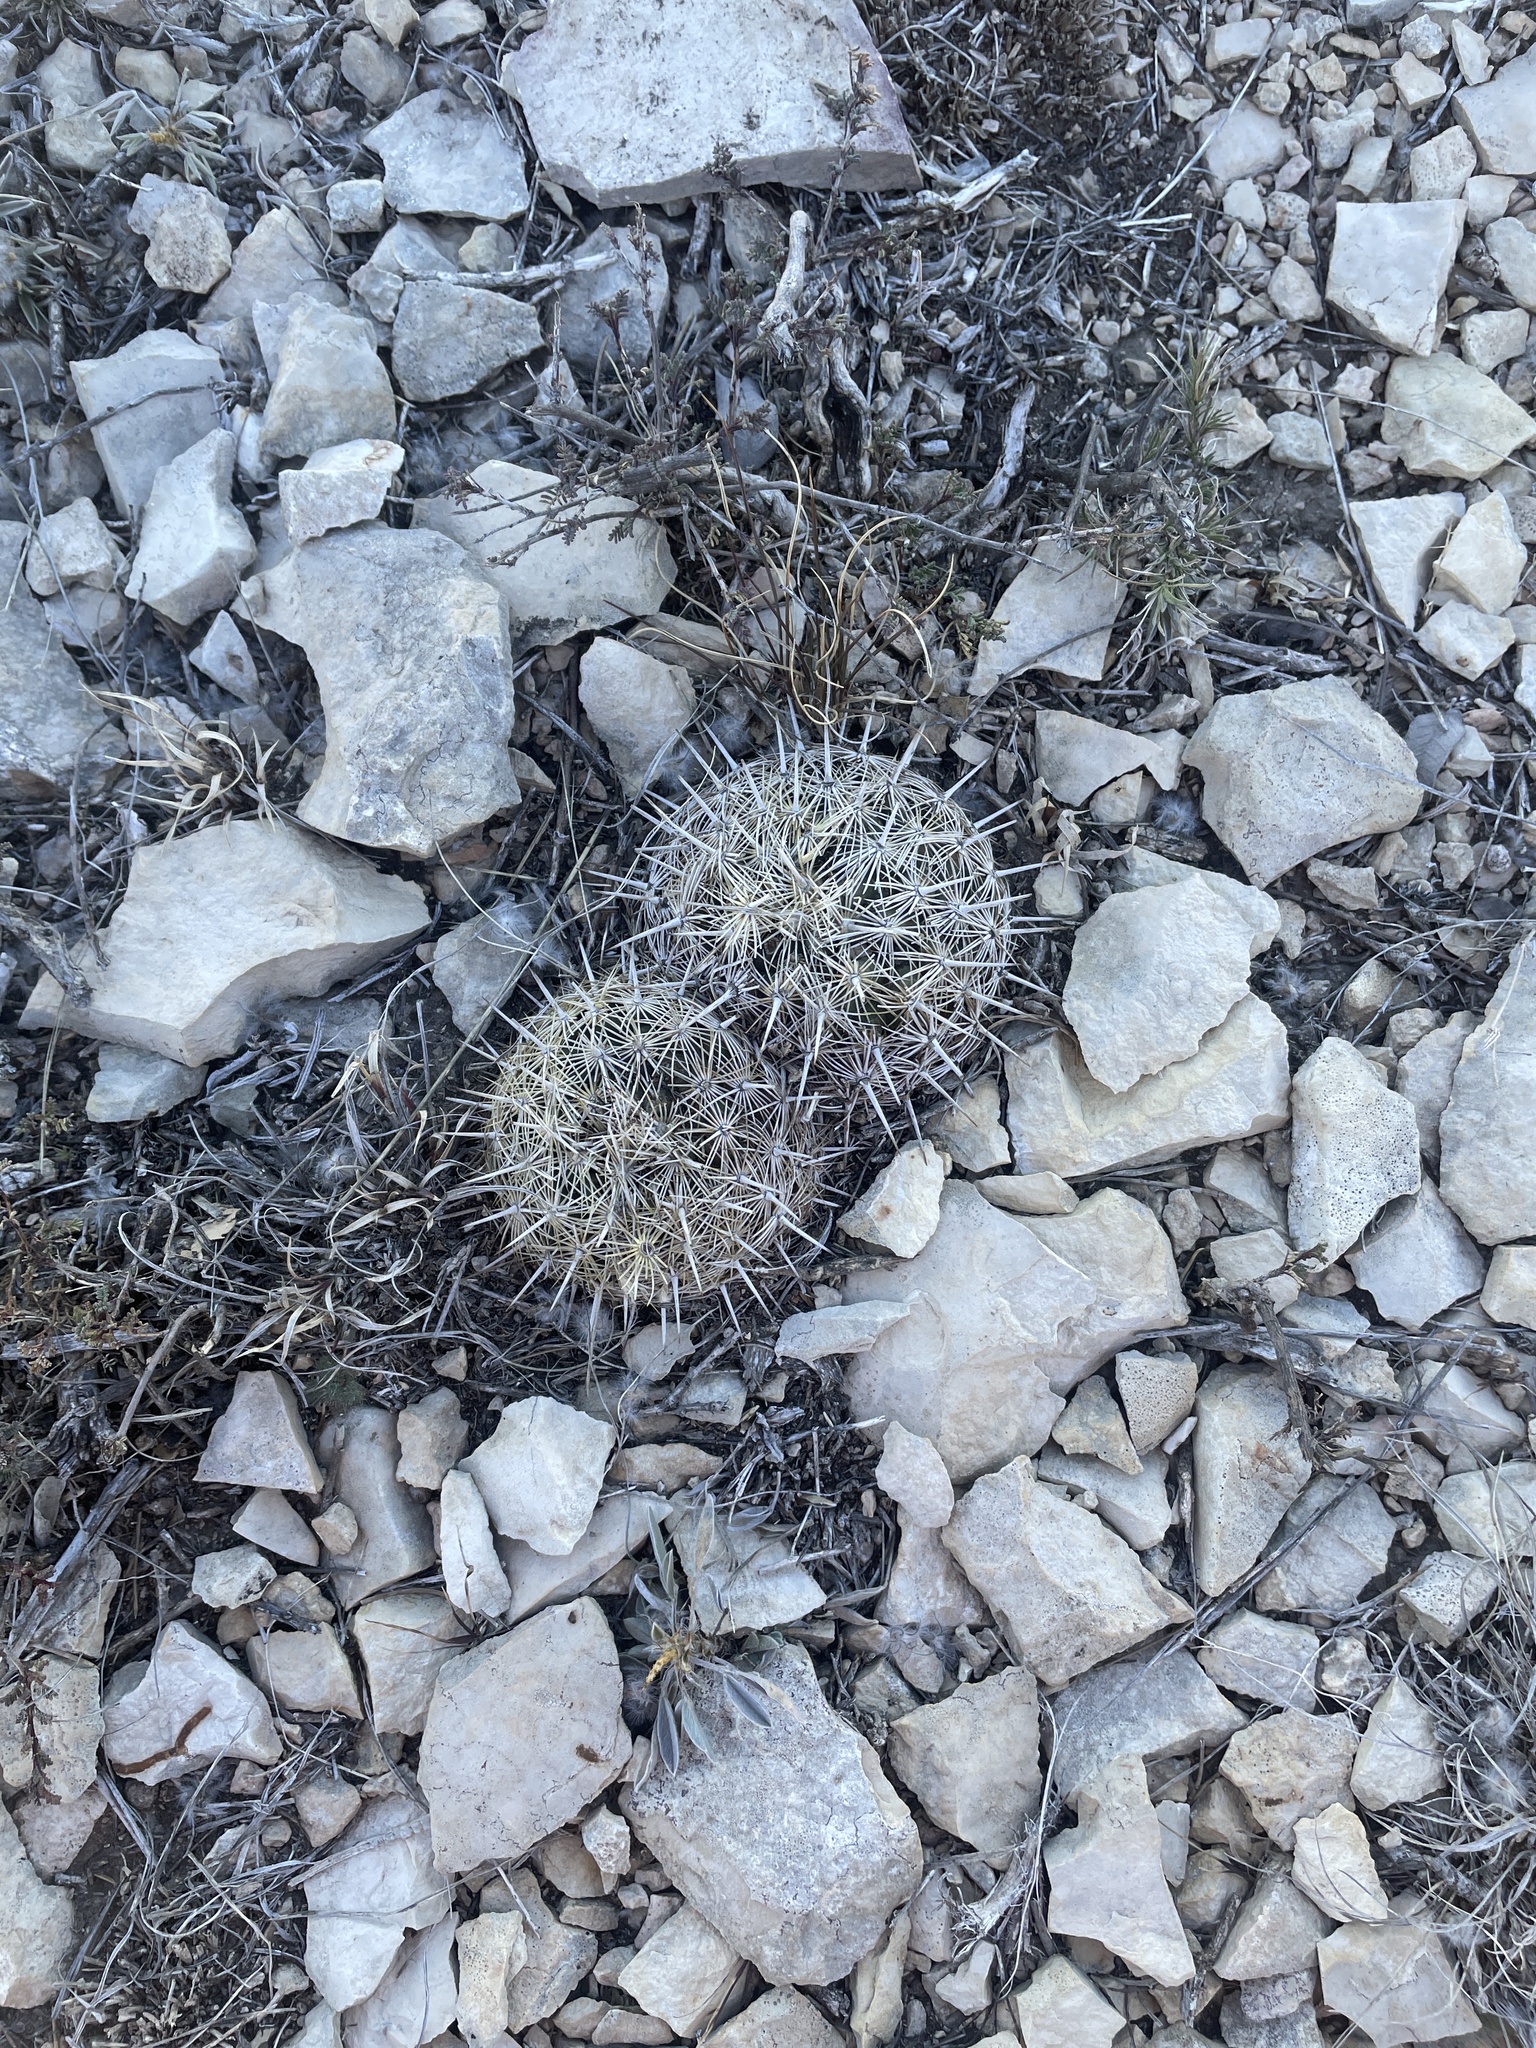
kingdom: Plantae
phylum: Tracheophyta
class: Magnoliopsida
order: Caryophyllales
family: Cactaceae
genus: Coryphantha
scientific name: Coryphantha echinus
